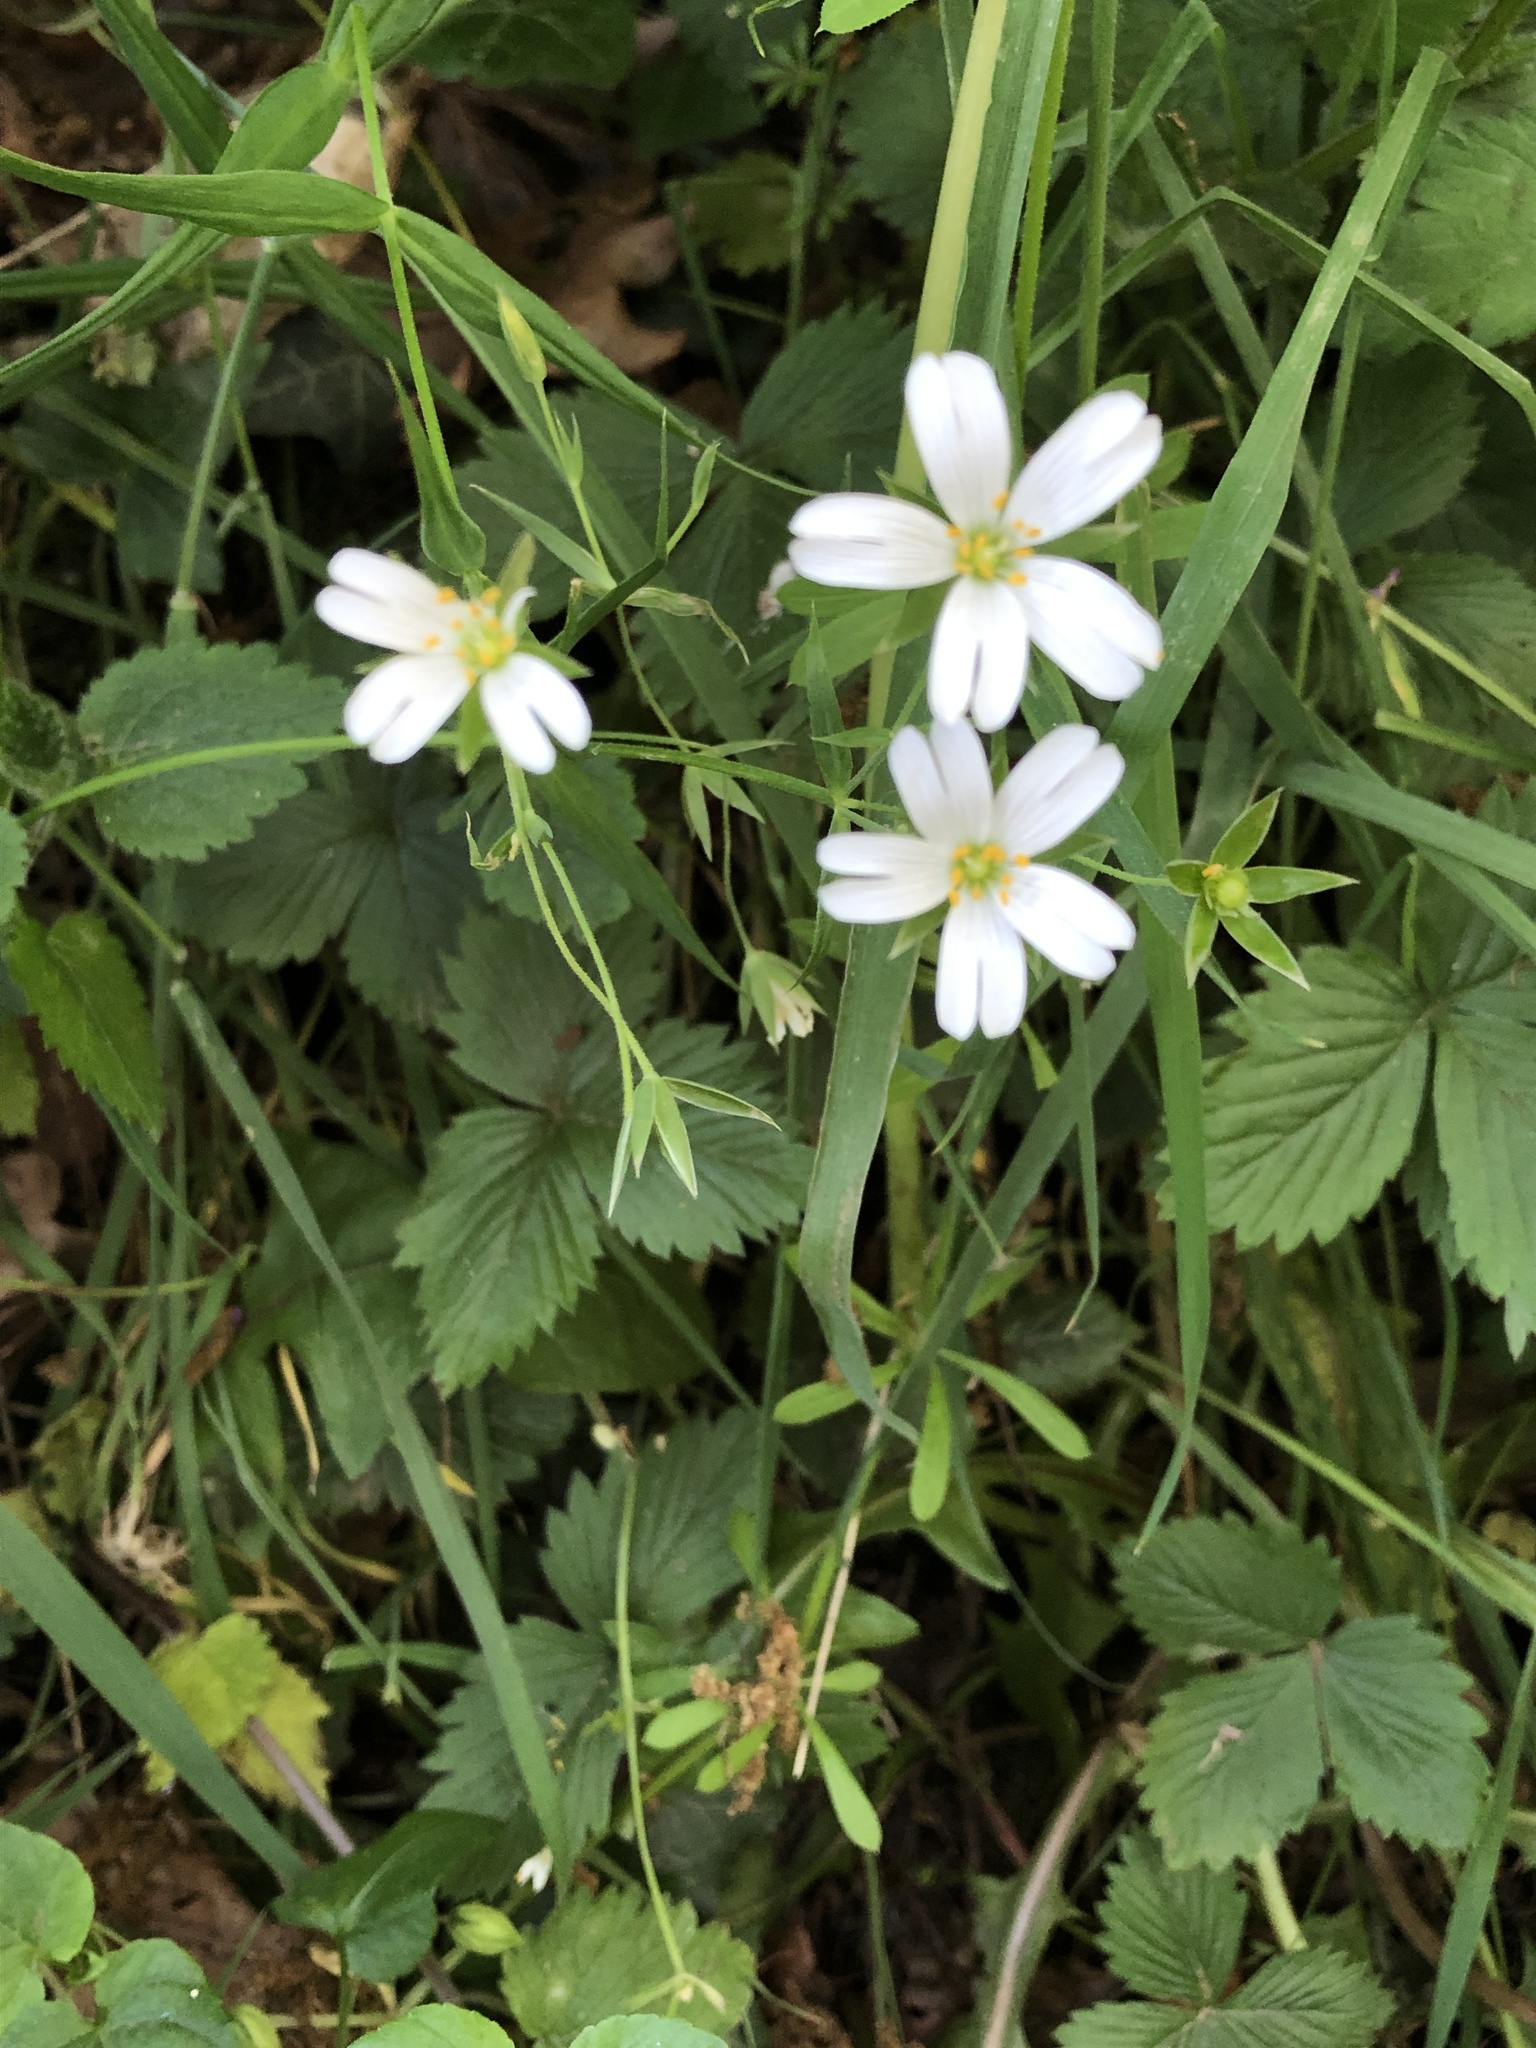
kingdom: Plantae
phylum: Tracheophyta
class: Magnoliopsida
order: Caryophyllales
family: Caryophyllaceae
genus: Rabelera
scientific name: Rabelera holostea
